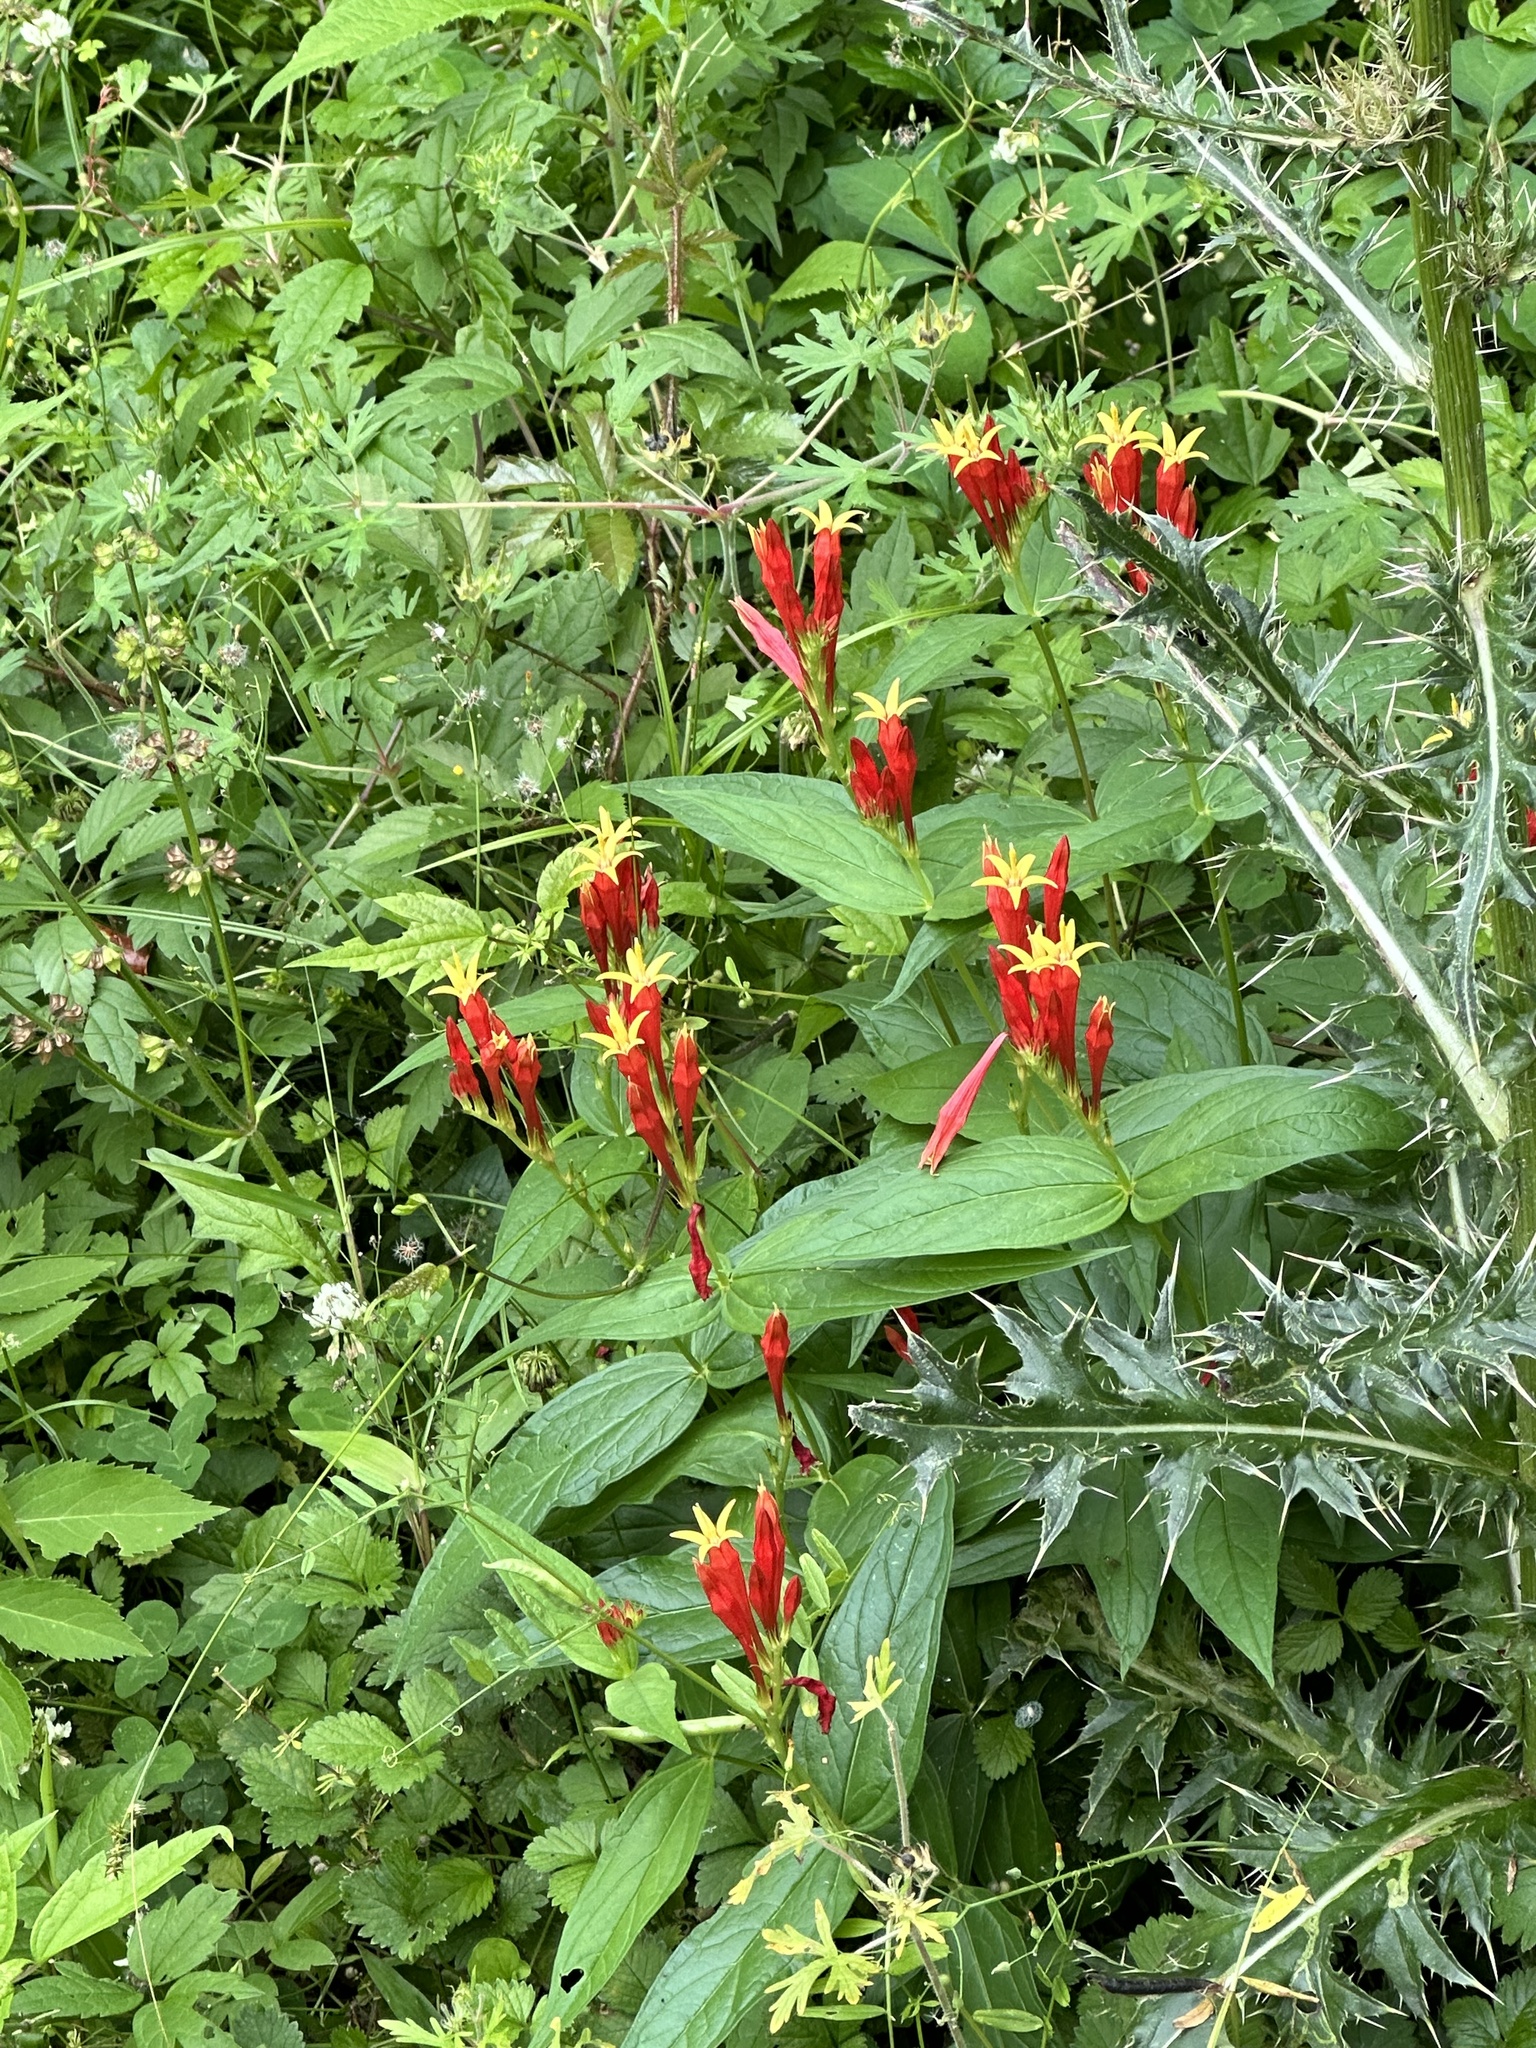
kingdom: Plantae
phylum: Tracheophyta
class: Magnoliopsida
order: Gentianales
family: Loganiaceae
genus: Spigelia
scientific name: Spigelia marilandica
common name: Indian-pink
